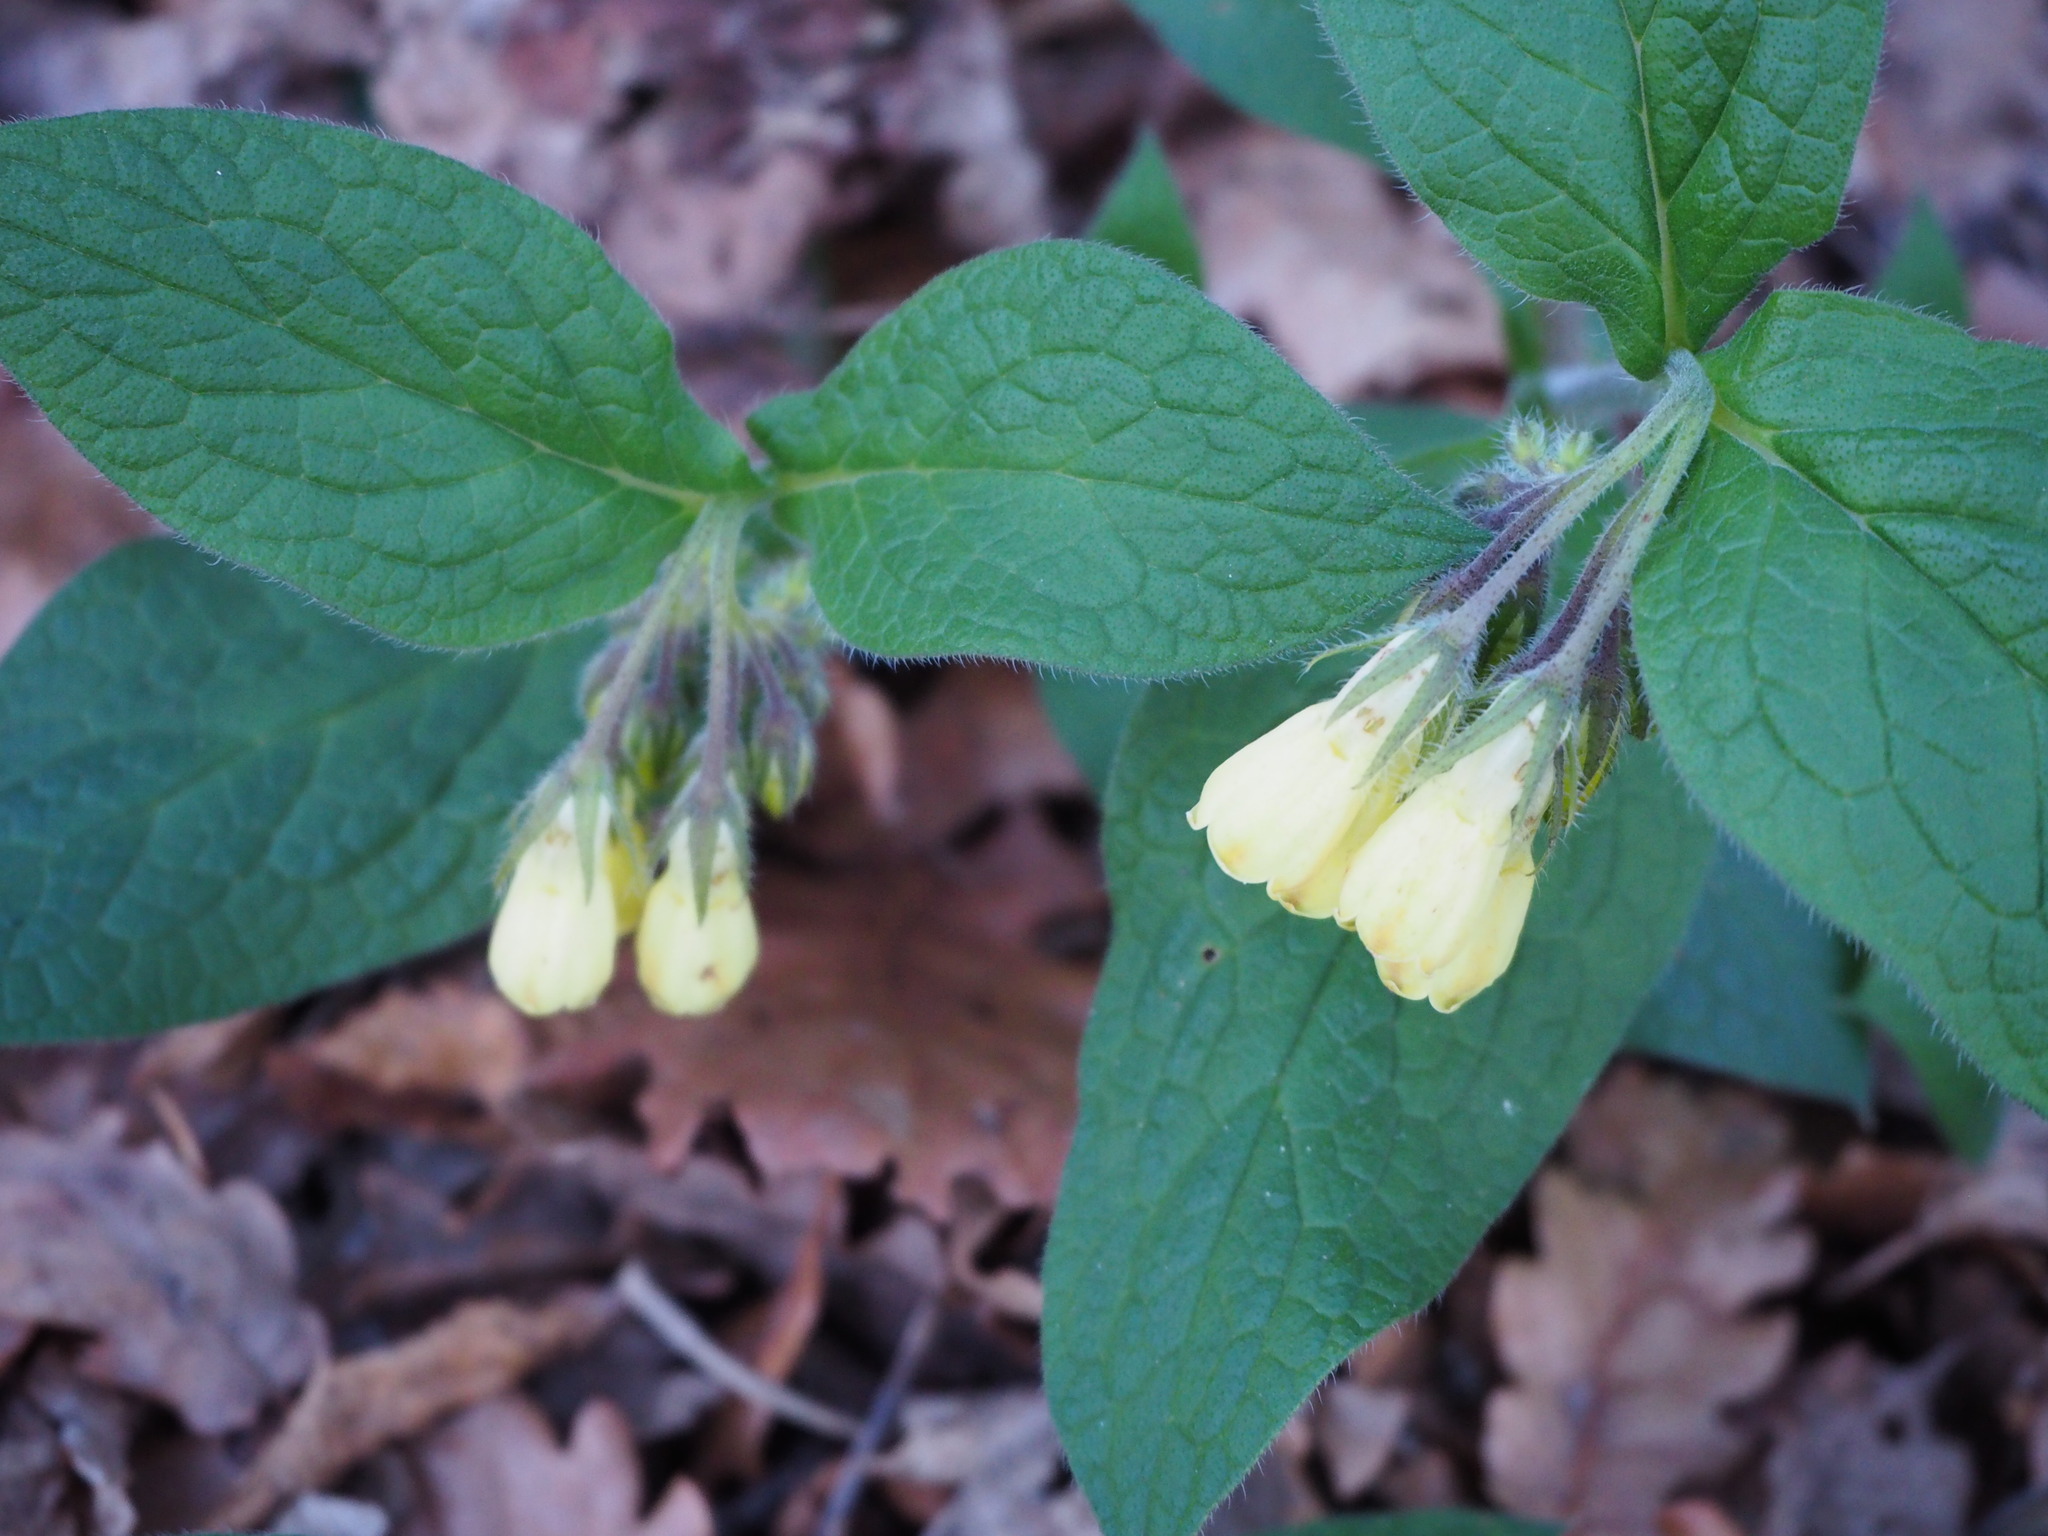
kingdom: Plantae
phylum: Tracheophyta
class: Magnoliopsida
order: Boraginales
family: Boraginaceae
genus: Symphytum
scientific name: Symphytum tuberosum
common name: Tuberous comfrey
